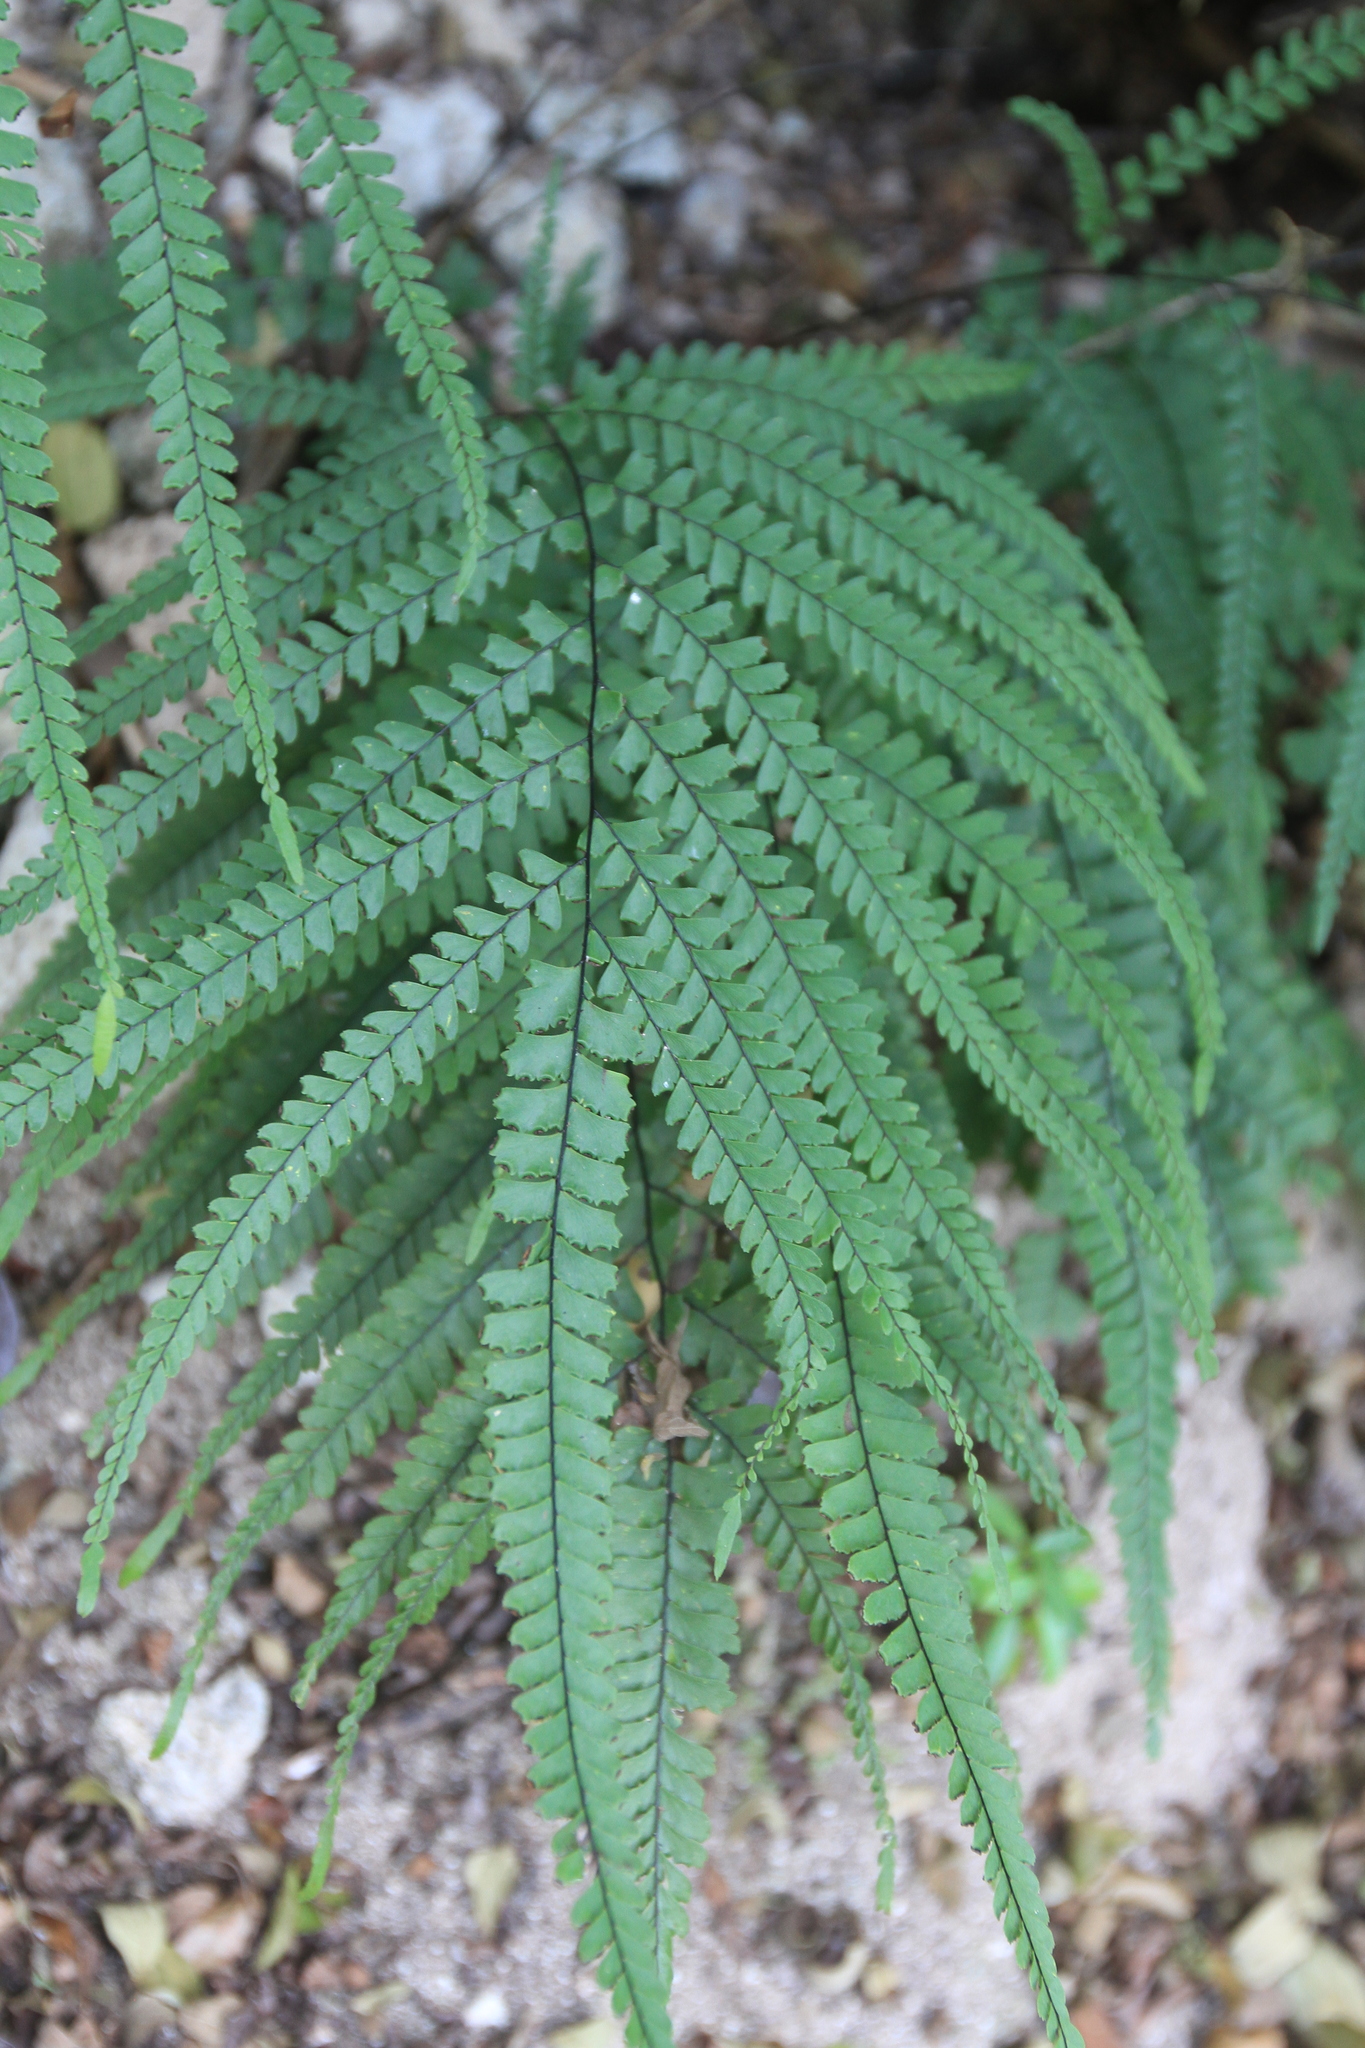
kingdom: Plantae
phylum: Tracheophyta
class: Polypodiopsida
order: Polypodiales
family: Pteridaceae
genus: Adiantum
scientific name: Adiantum melanoleucum
